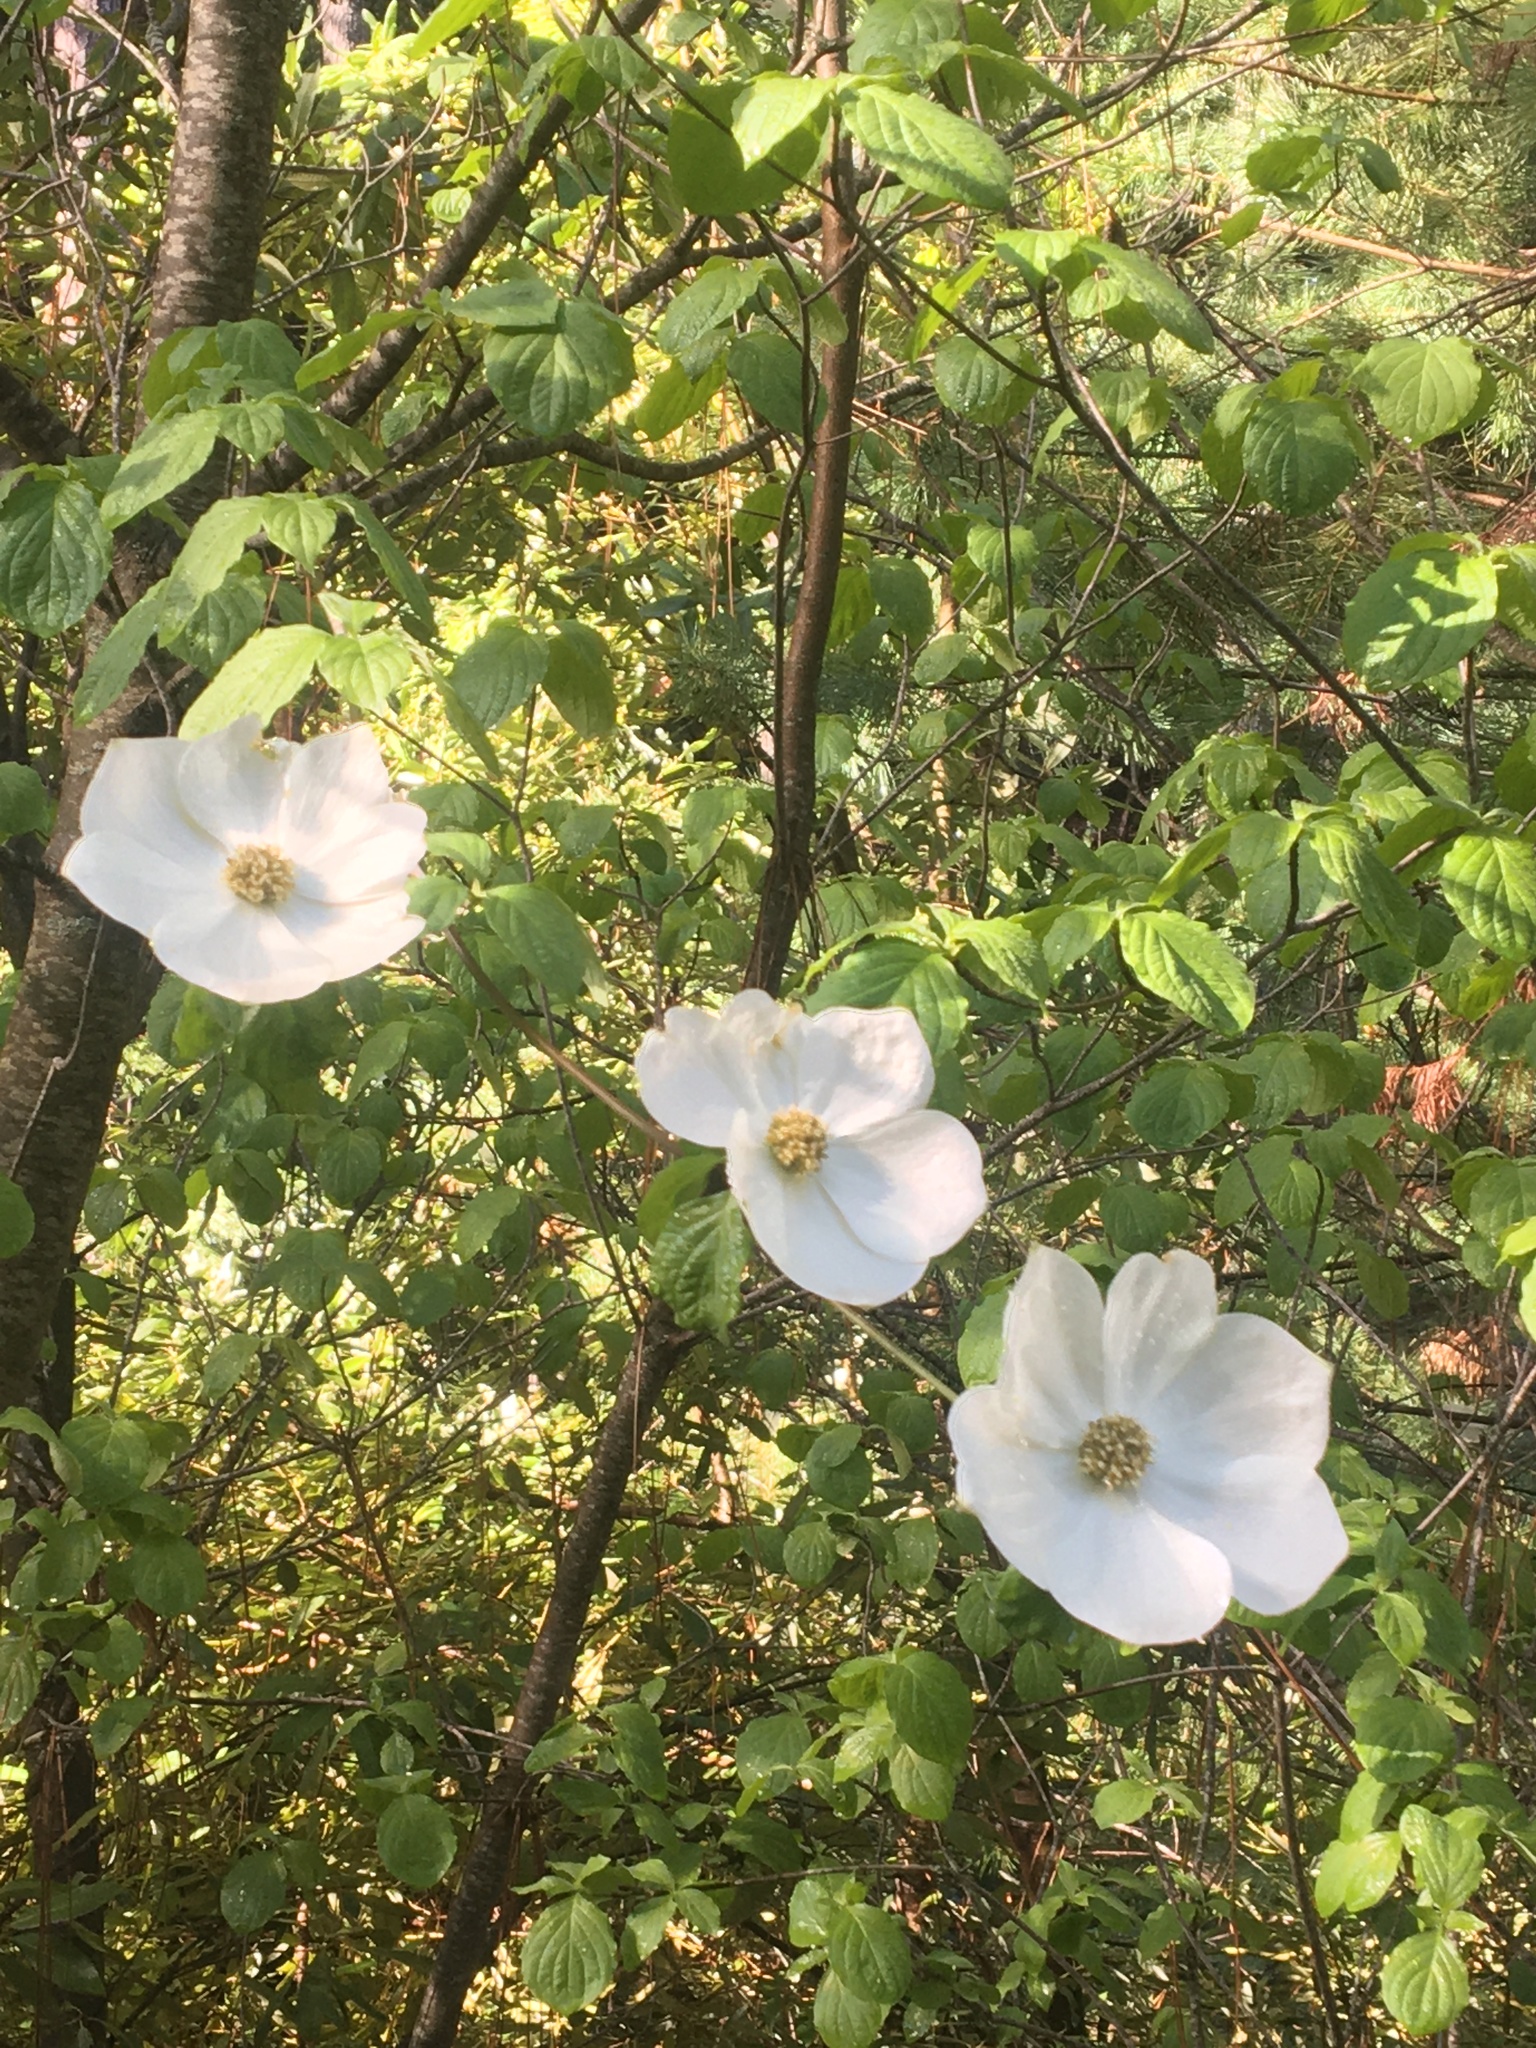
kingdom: Plantae
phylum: Tracheophyta
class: Magnoliopsida
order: Cornales
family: Cornaceae
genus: Cornus
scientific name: Cornus nuttallii
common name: Pacific dogwood
